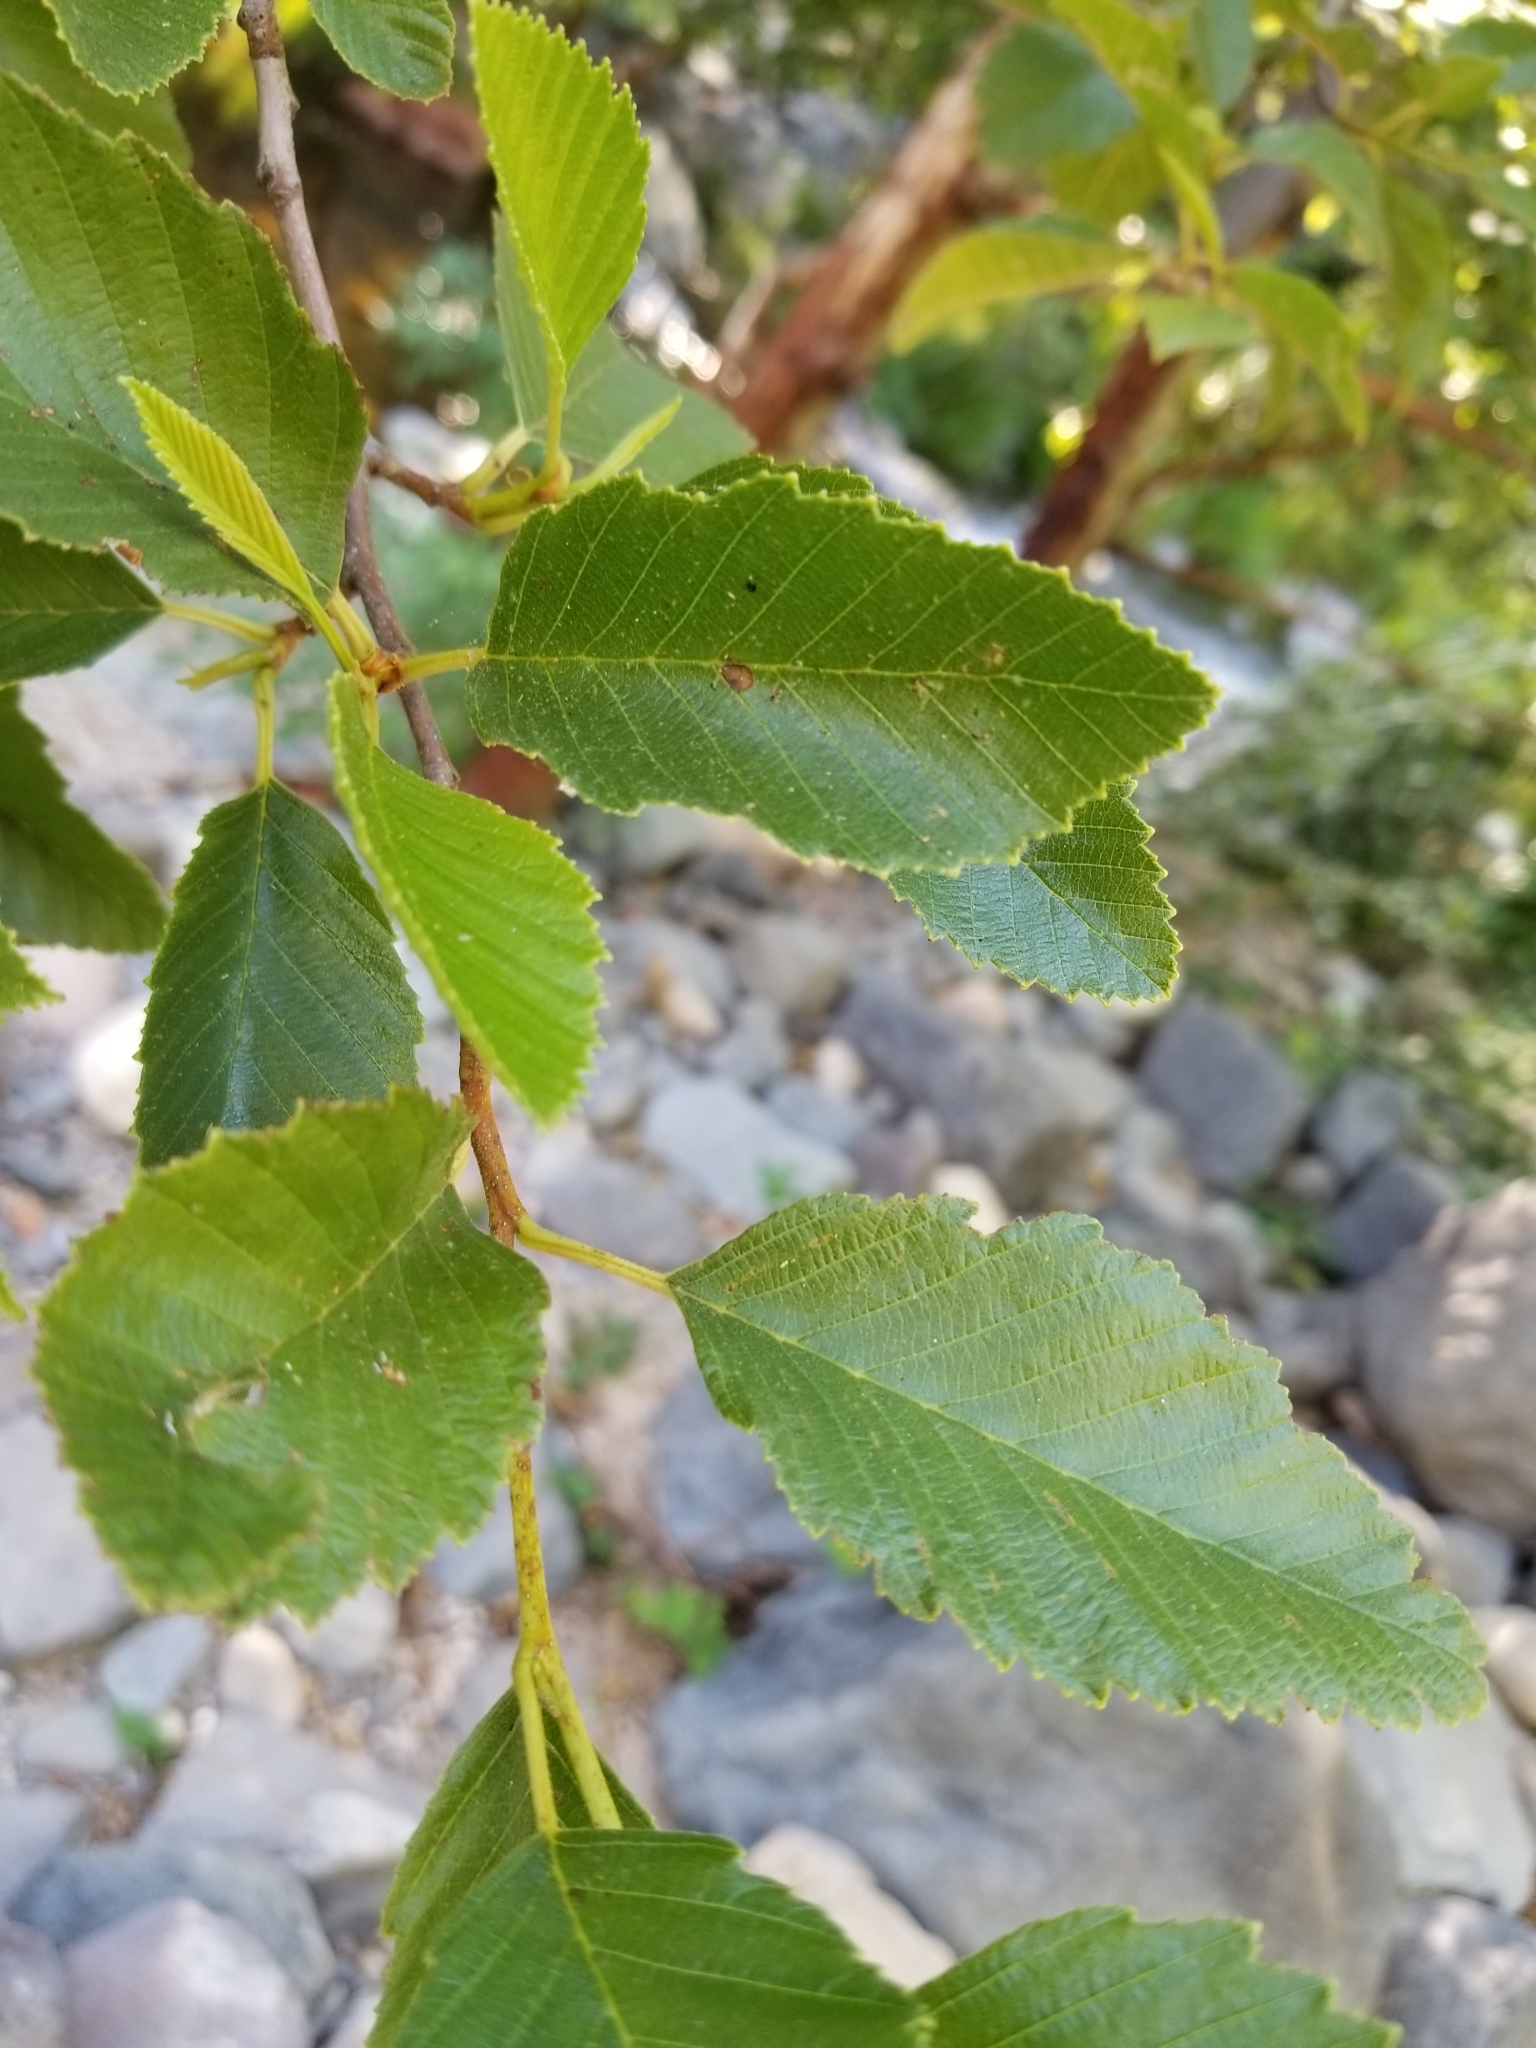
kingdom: Plantae
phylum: Tracheophyta
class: Magnoliopsida
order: Fagales
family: Betulaceae
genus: Alnus
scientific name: Alnus oblongifolia
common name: Arizona alder
